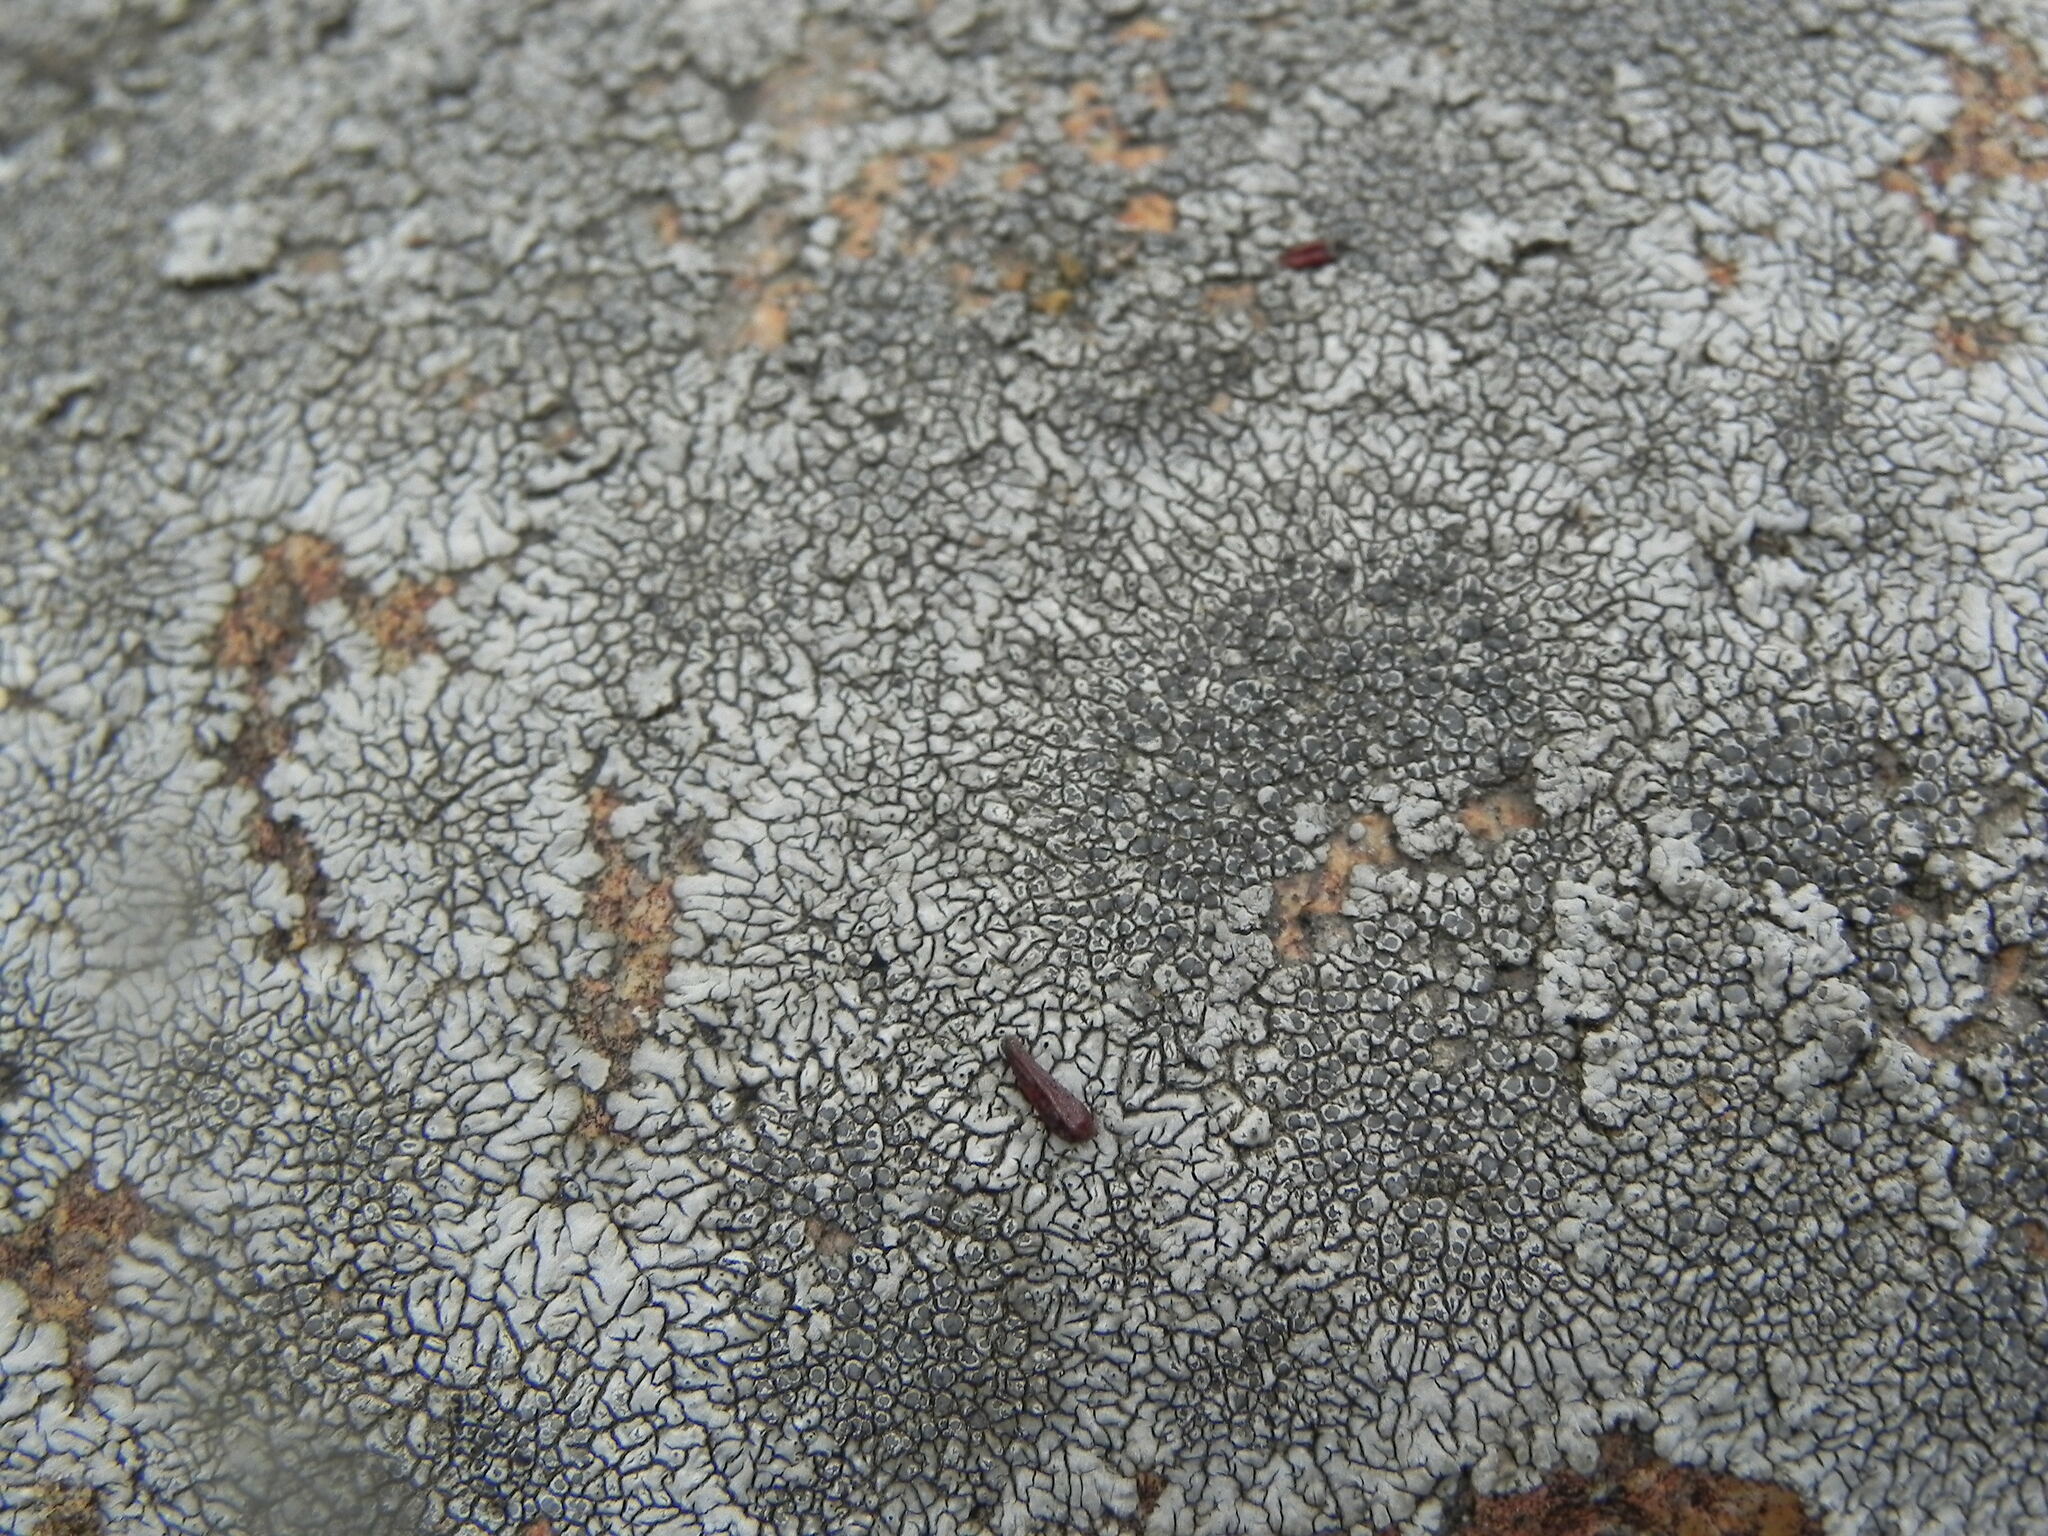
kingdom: Fungi
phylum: Ascomycota
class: Lecanoromycetes
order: Caliciales
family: Caliciaceae
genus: Dimelaena
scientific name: Dimelaena radiata
